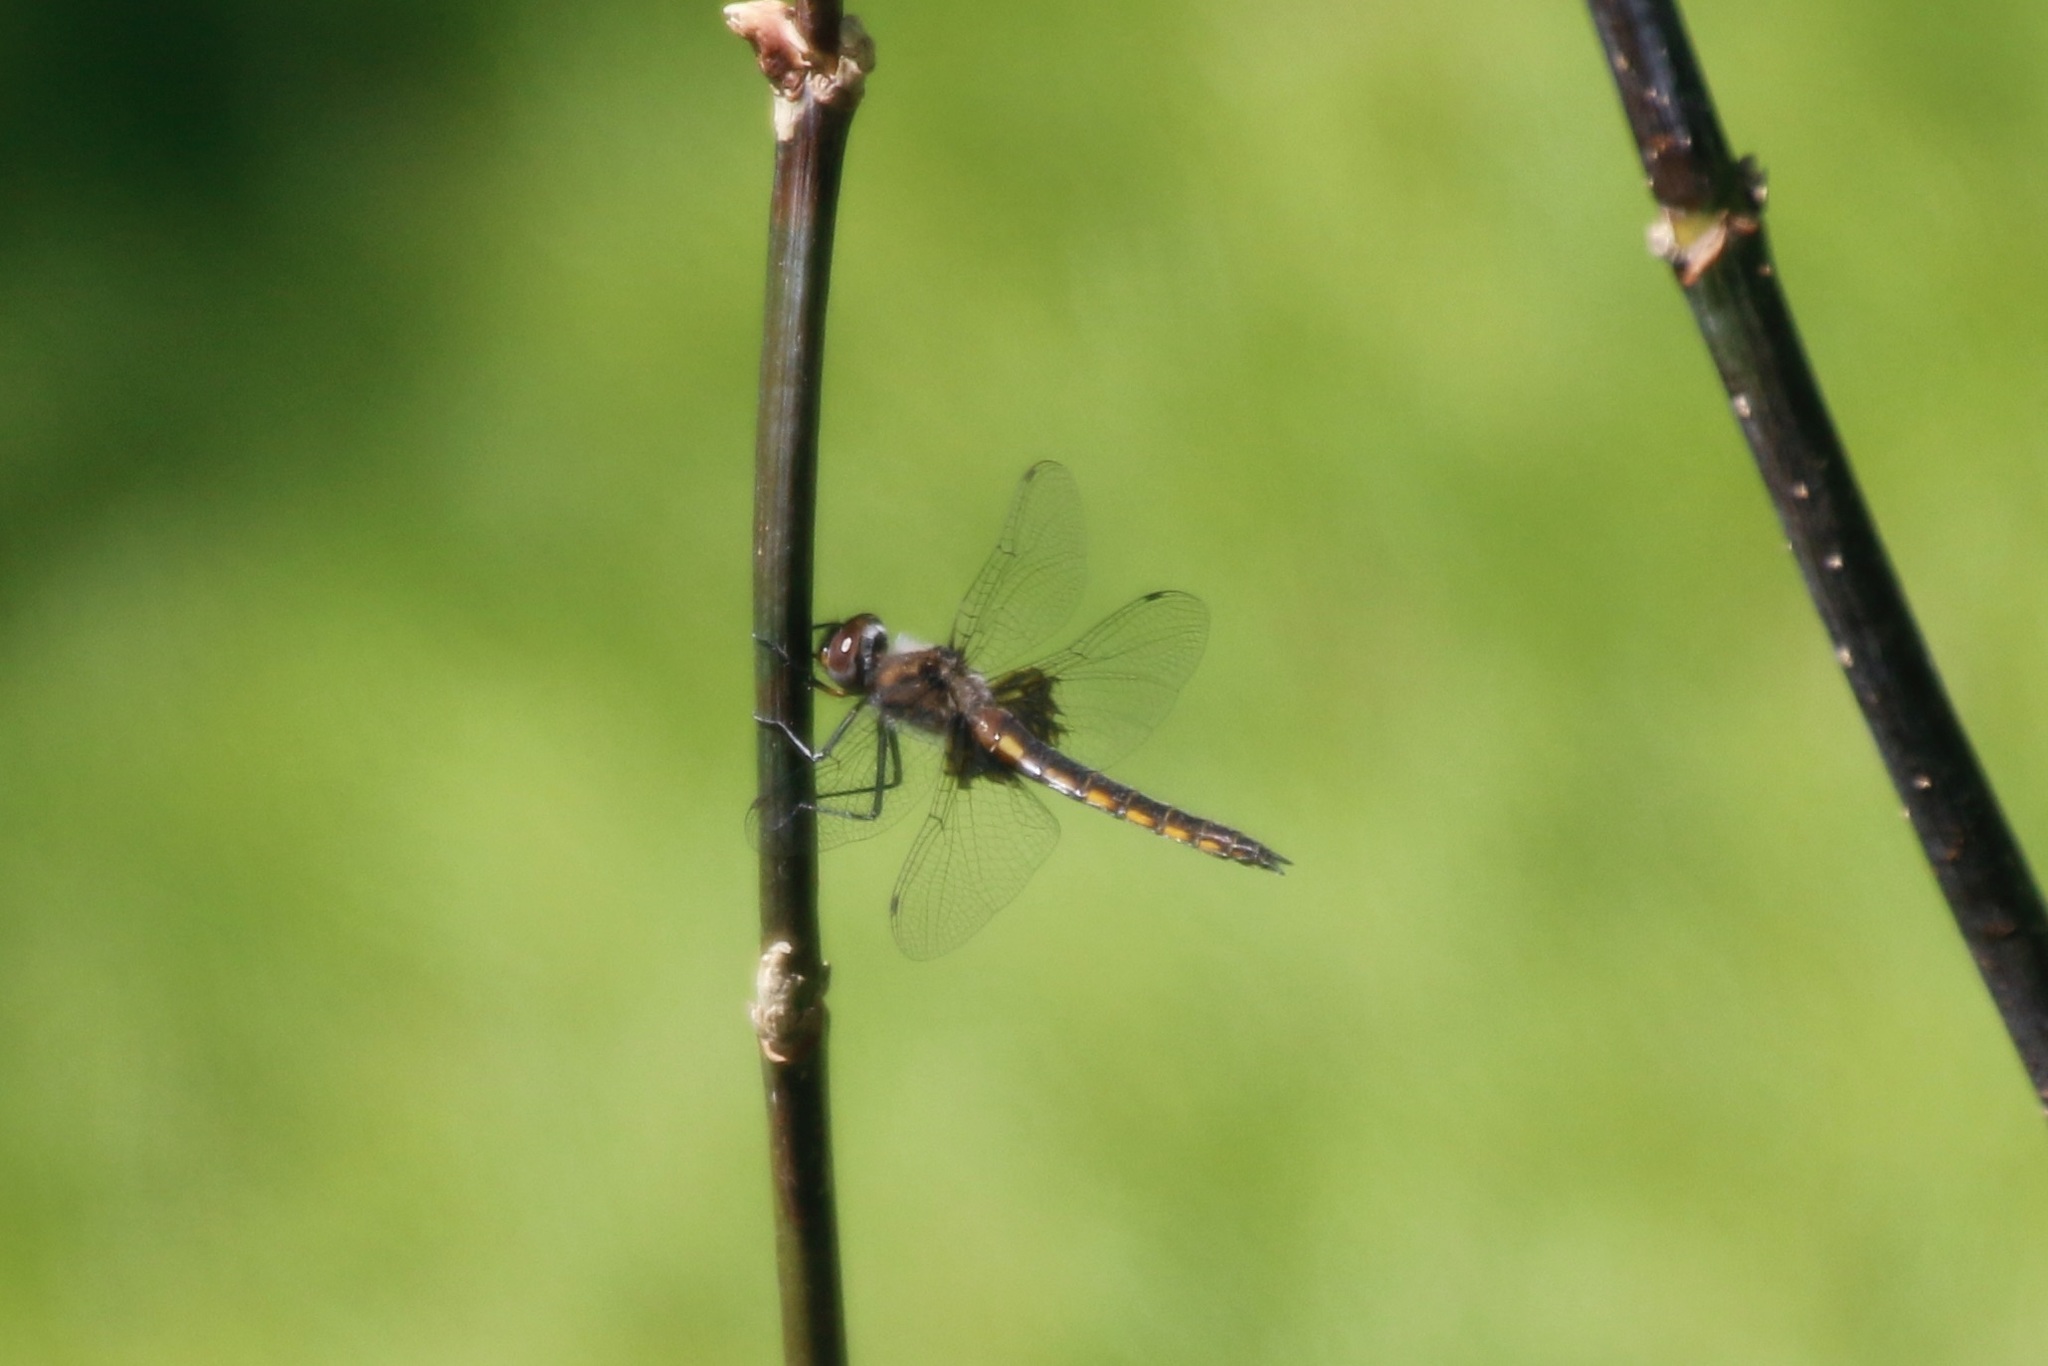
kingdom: Animalia
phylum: Arthropoda
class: Insecta
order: Odonata
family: Corduliidae
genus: Epitheca
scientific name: Epitheca cynosura
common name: Common baskettail
